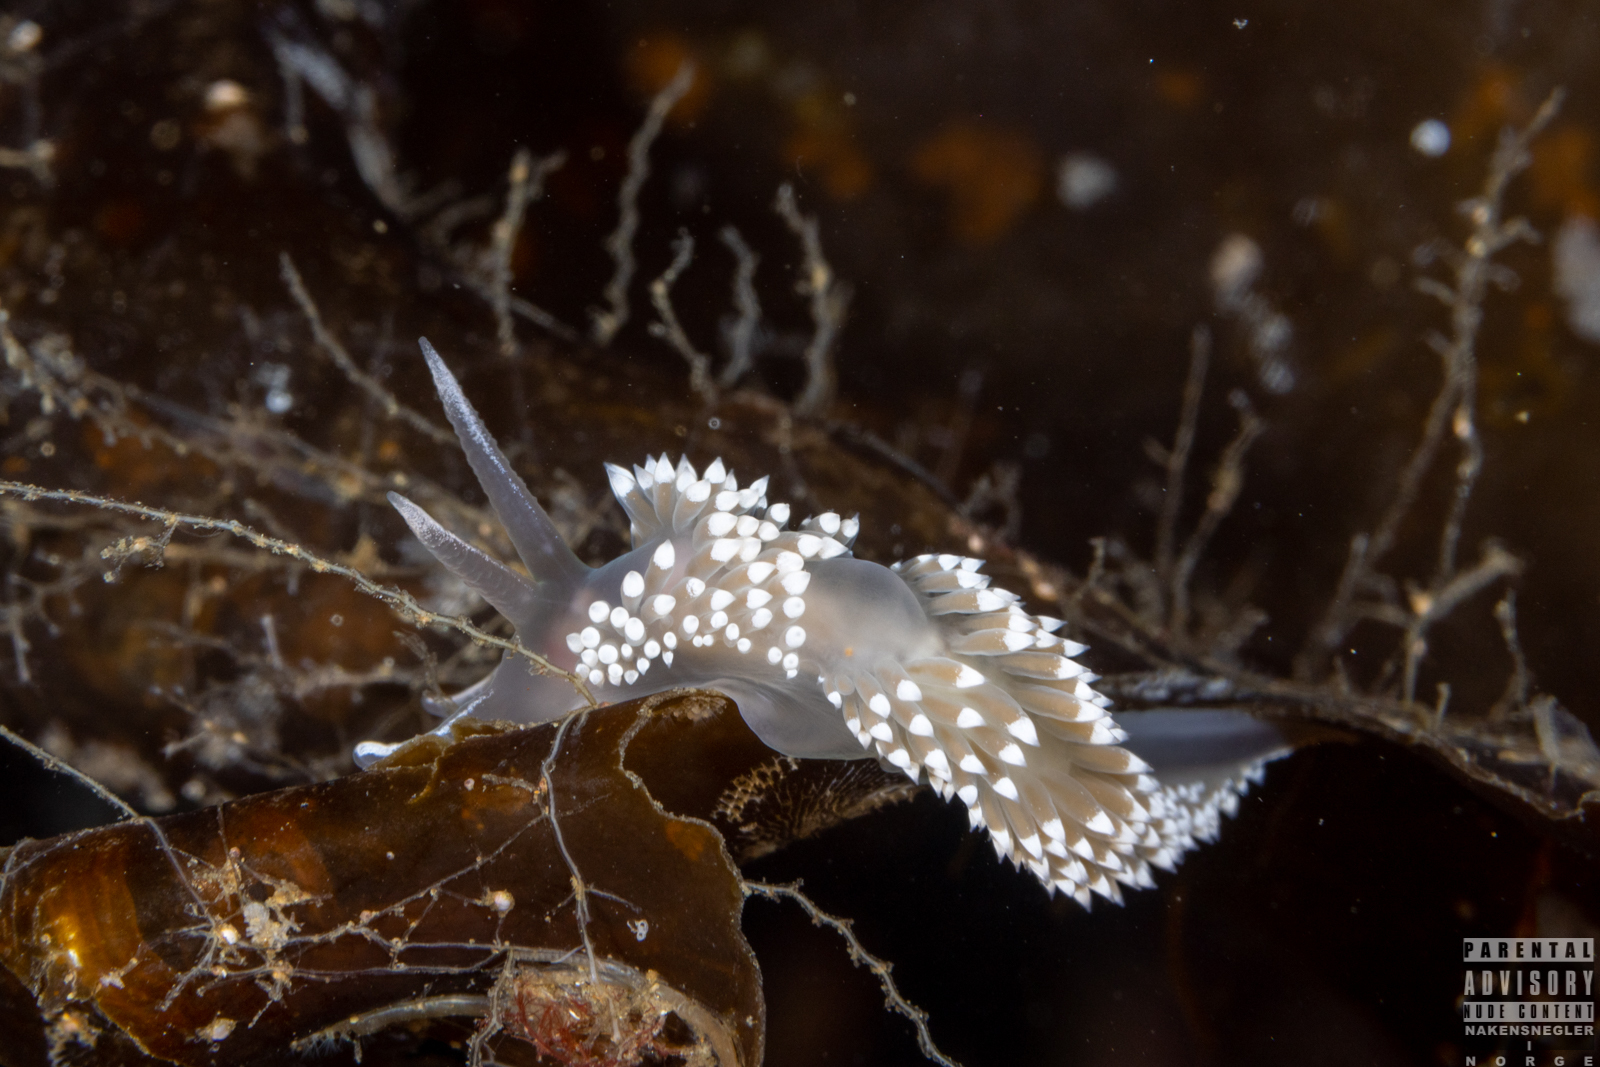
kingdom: Animalia
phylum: Mollusca
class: Gastropoda
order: Nudibranchia
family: Coryphellidae
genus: Coryphella
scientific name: Coryphella verrucosa
